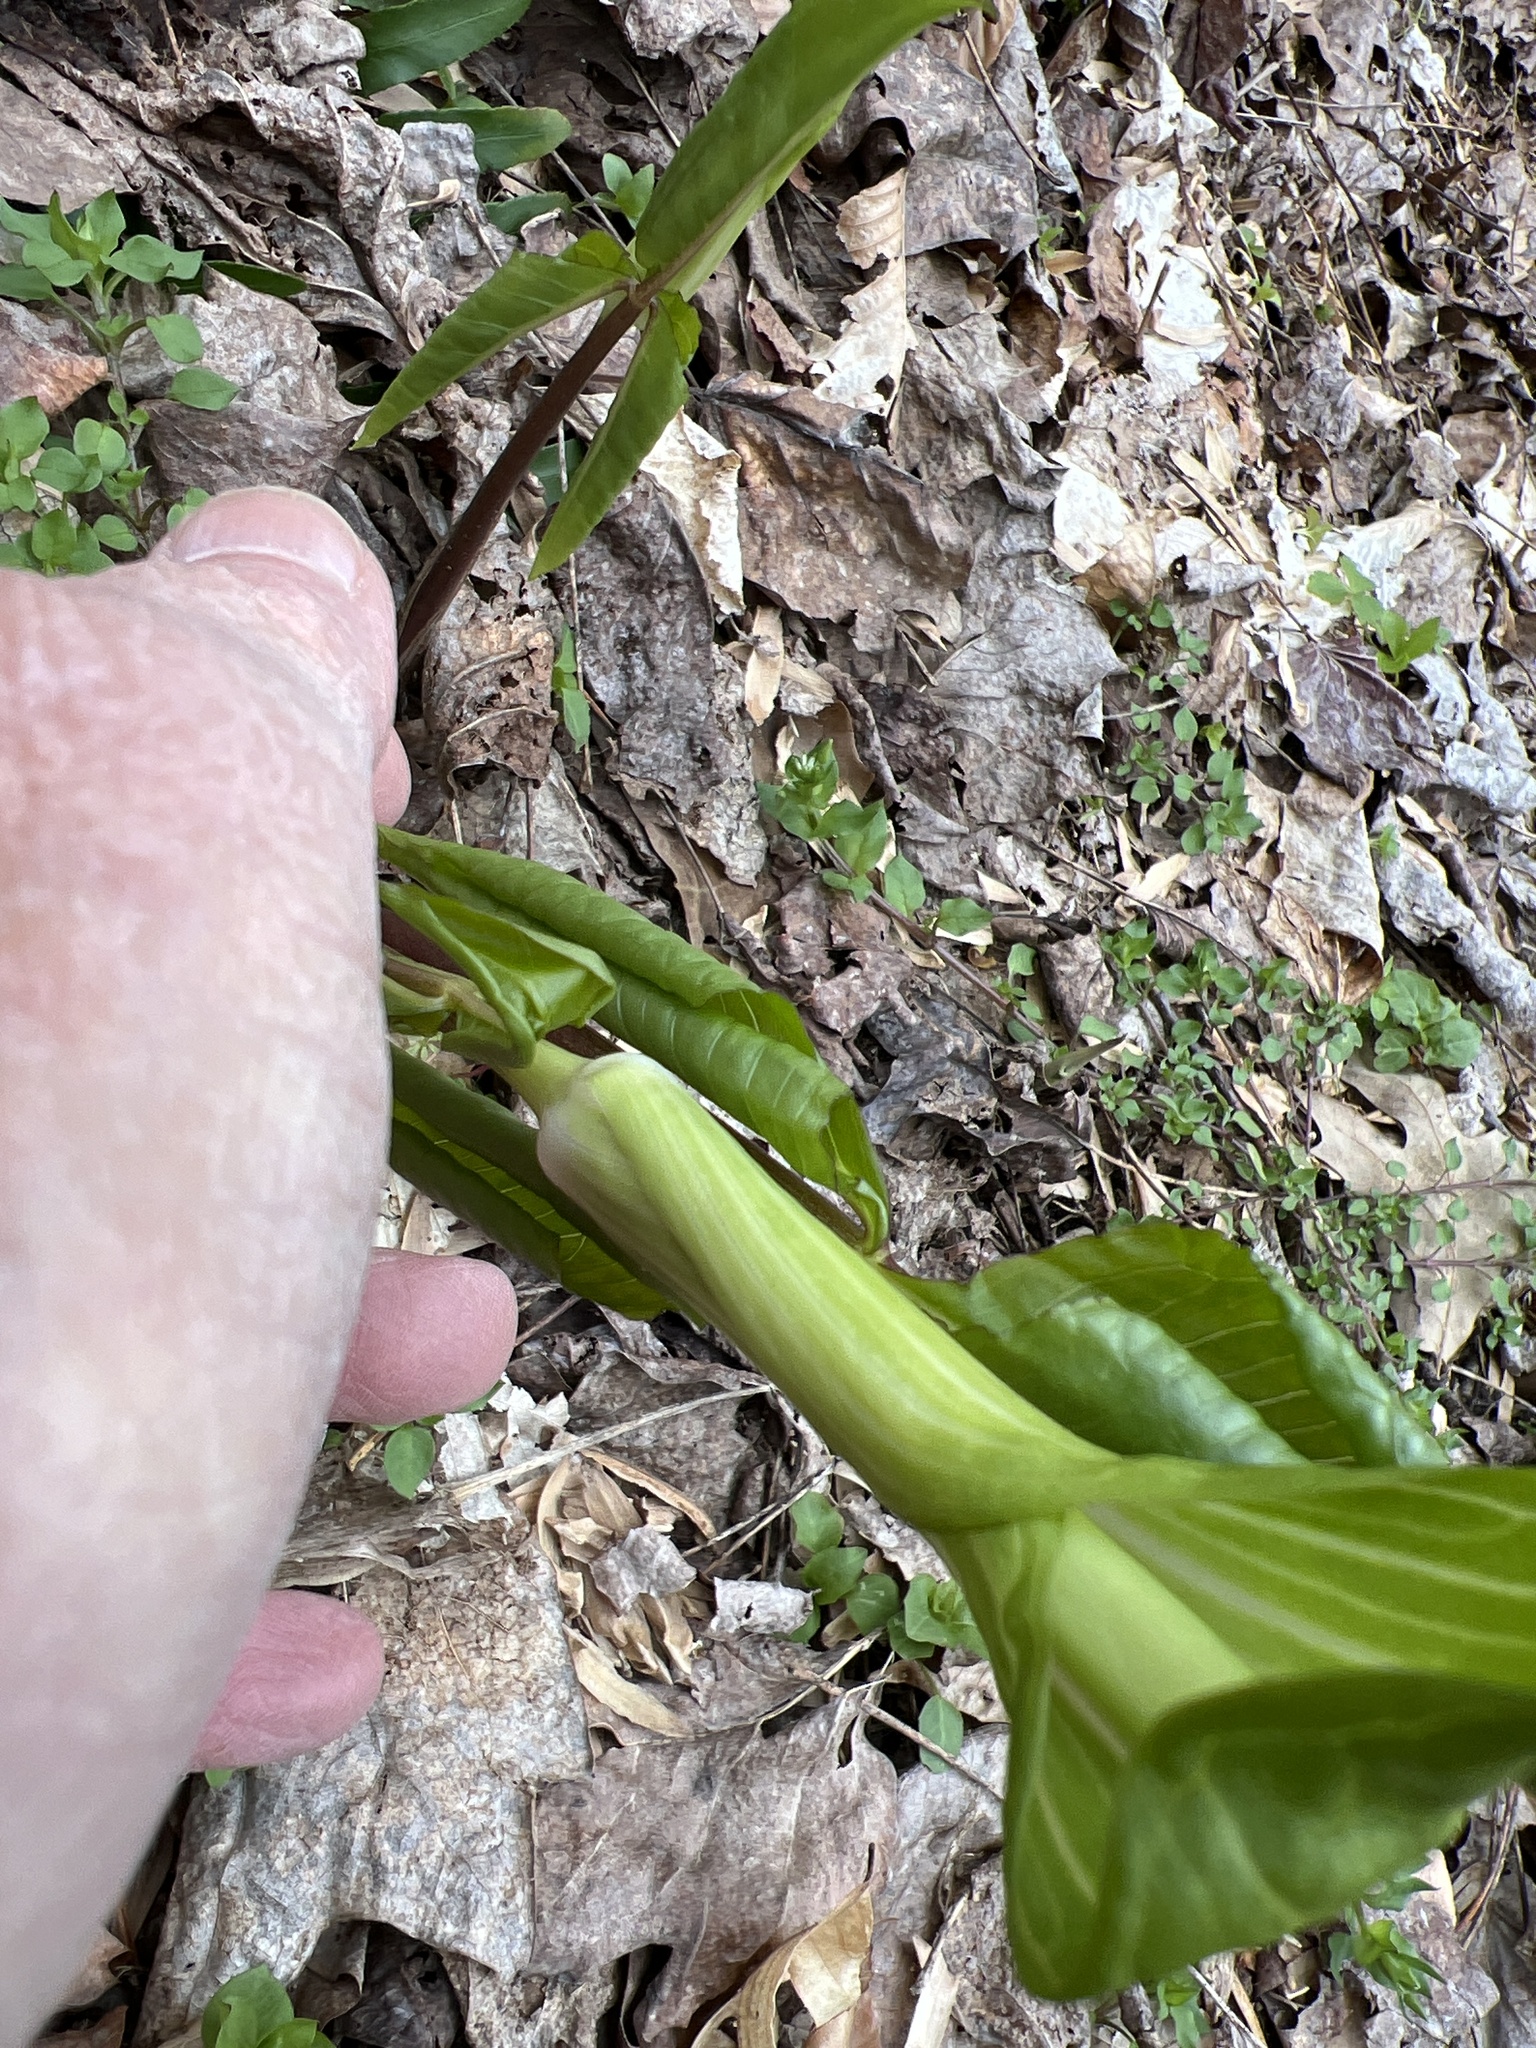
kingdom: Plantae
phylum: Tracheophyta
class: Liliopsida
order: Alismatales
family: Araceae
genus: Arisaema
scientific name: Arisaema triphyllum
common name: Jack-in-the-pulpit
